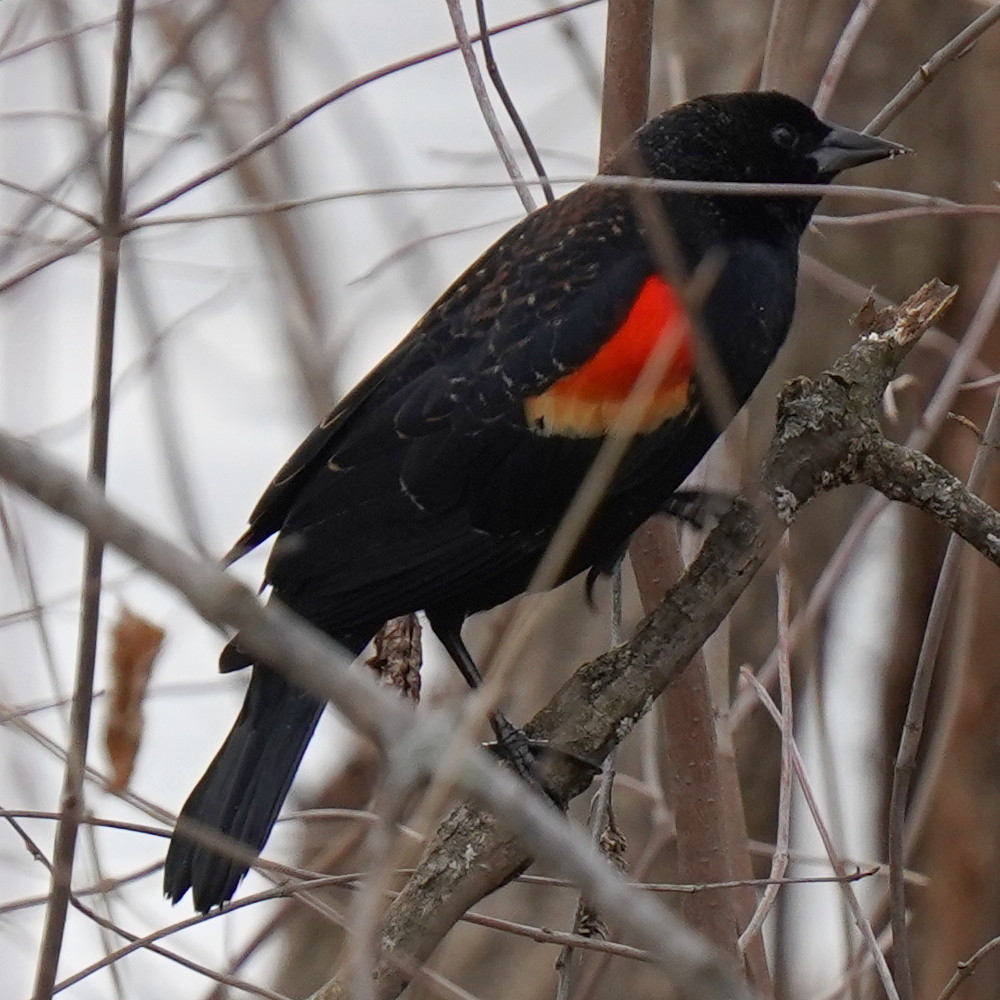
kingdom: Animalia
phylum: Chordata
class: Aves
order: Passeriformes
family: Icteridae
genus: Agelaius
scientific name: Agelaius phoeniceus
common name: Red-winged blackbird
